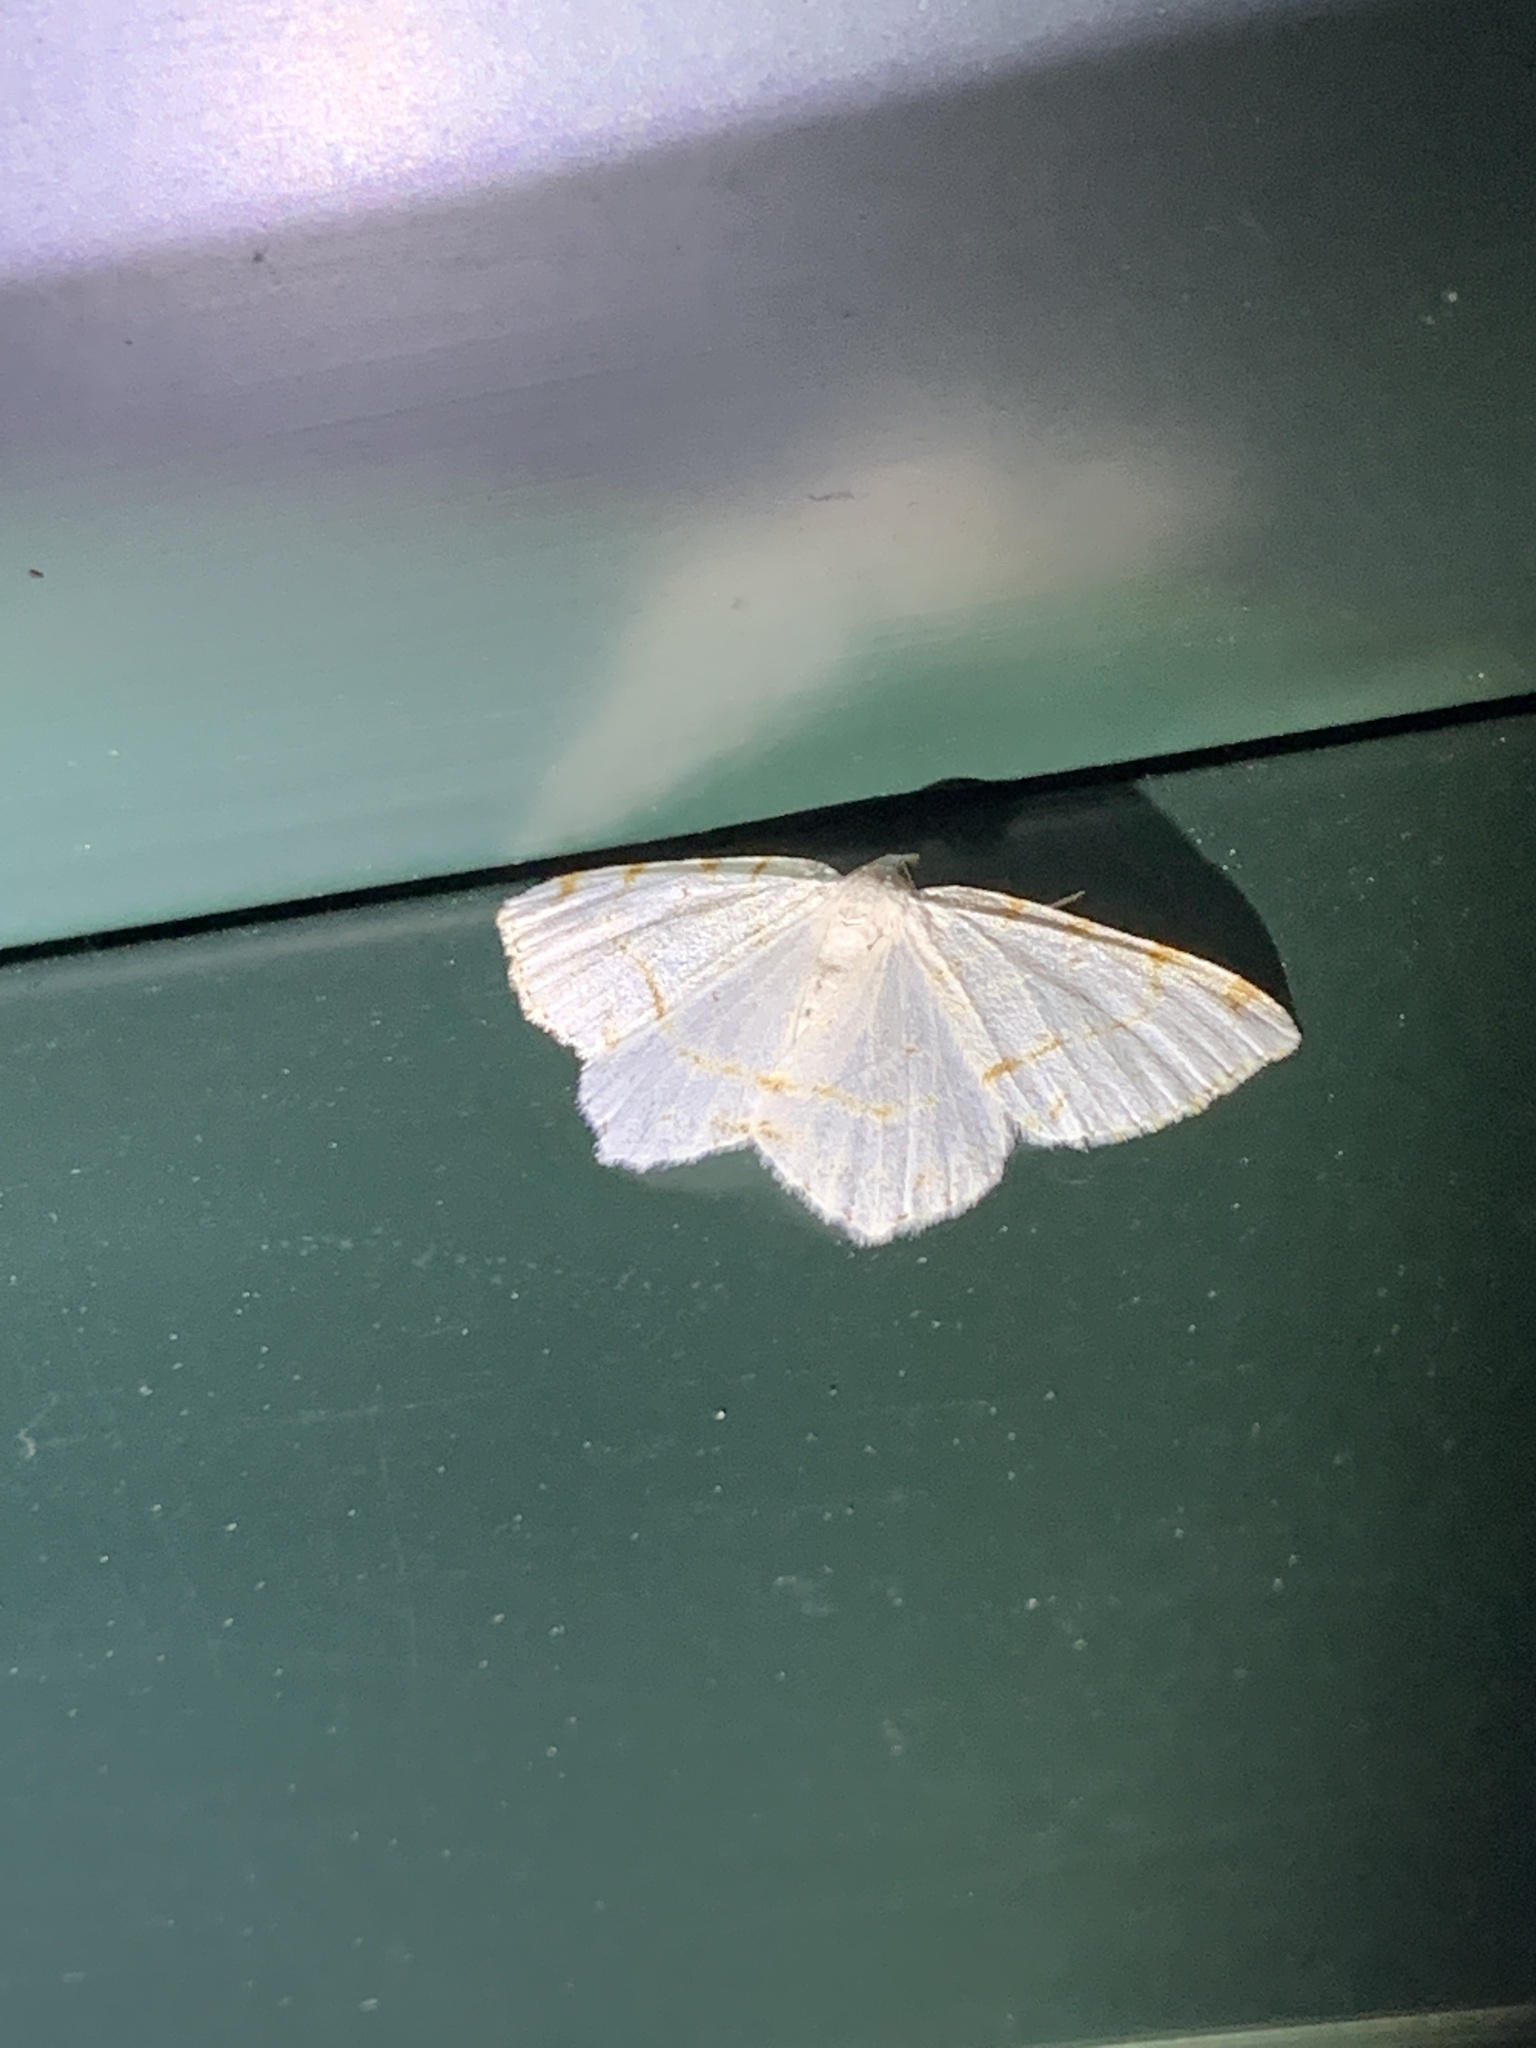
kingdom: Animalia
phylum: Arthropoda
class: Insecta
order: Lepidoptera
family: Geometridae
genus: Macaria
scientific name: Macaria pustularia
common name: Lesser maple spanworm moth
